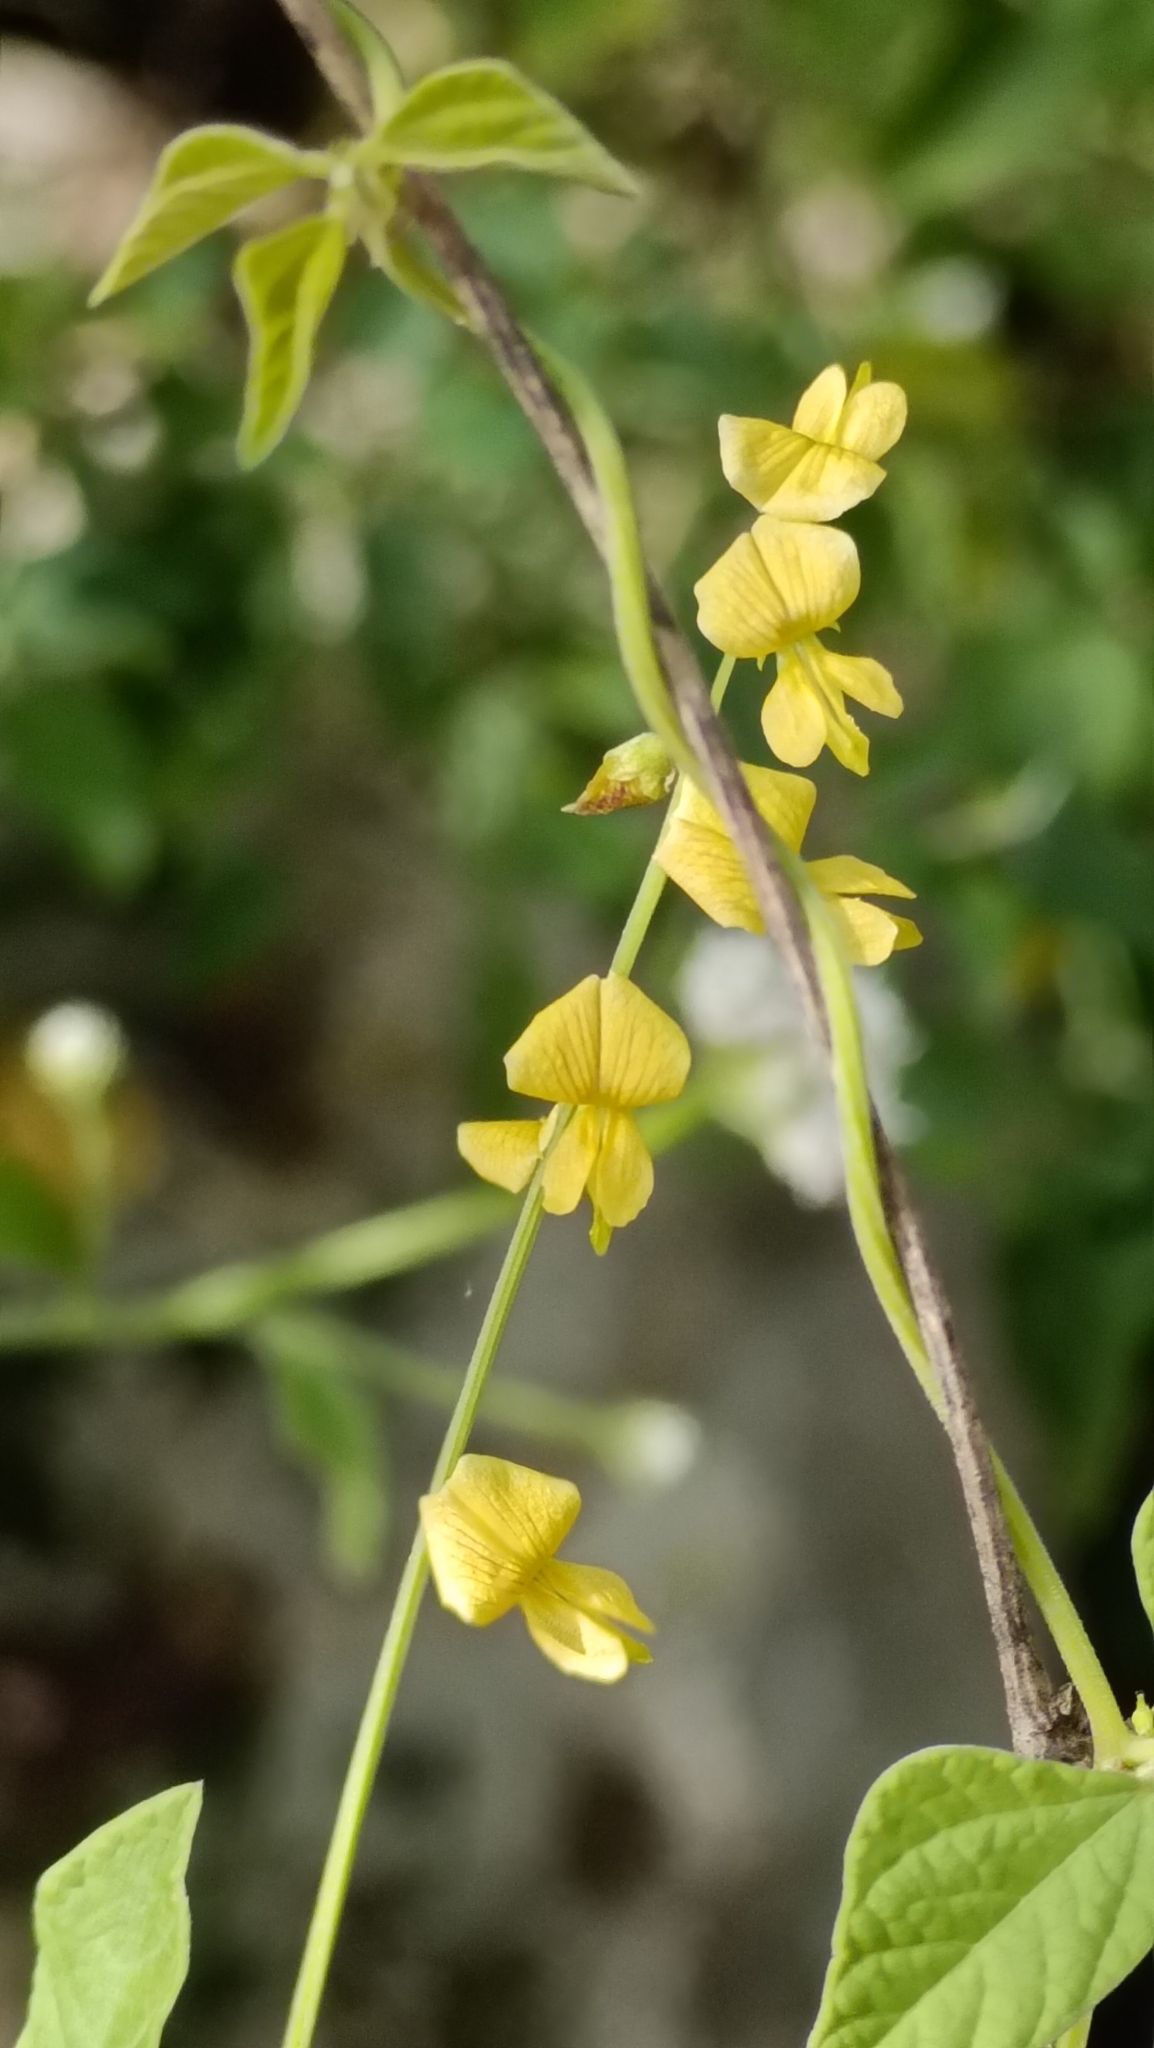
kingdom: Plantae
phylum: Tracheophyta
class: Magnoliopsida
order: Fabales
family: Fabaceae
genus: Rhynchosia
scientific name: Rhynchosia minima
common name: Least snoutbean
